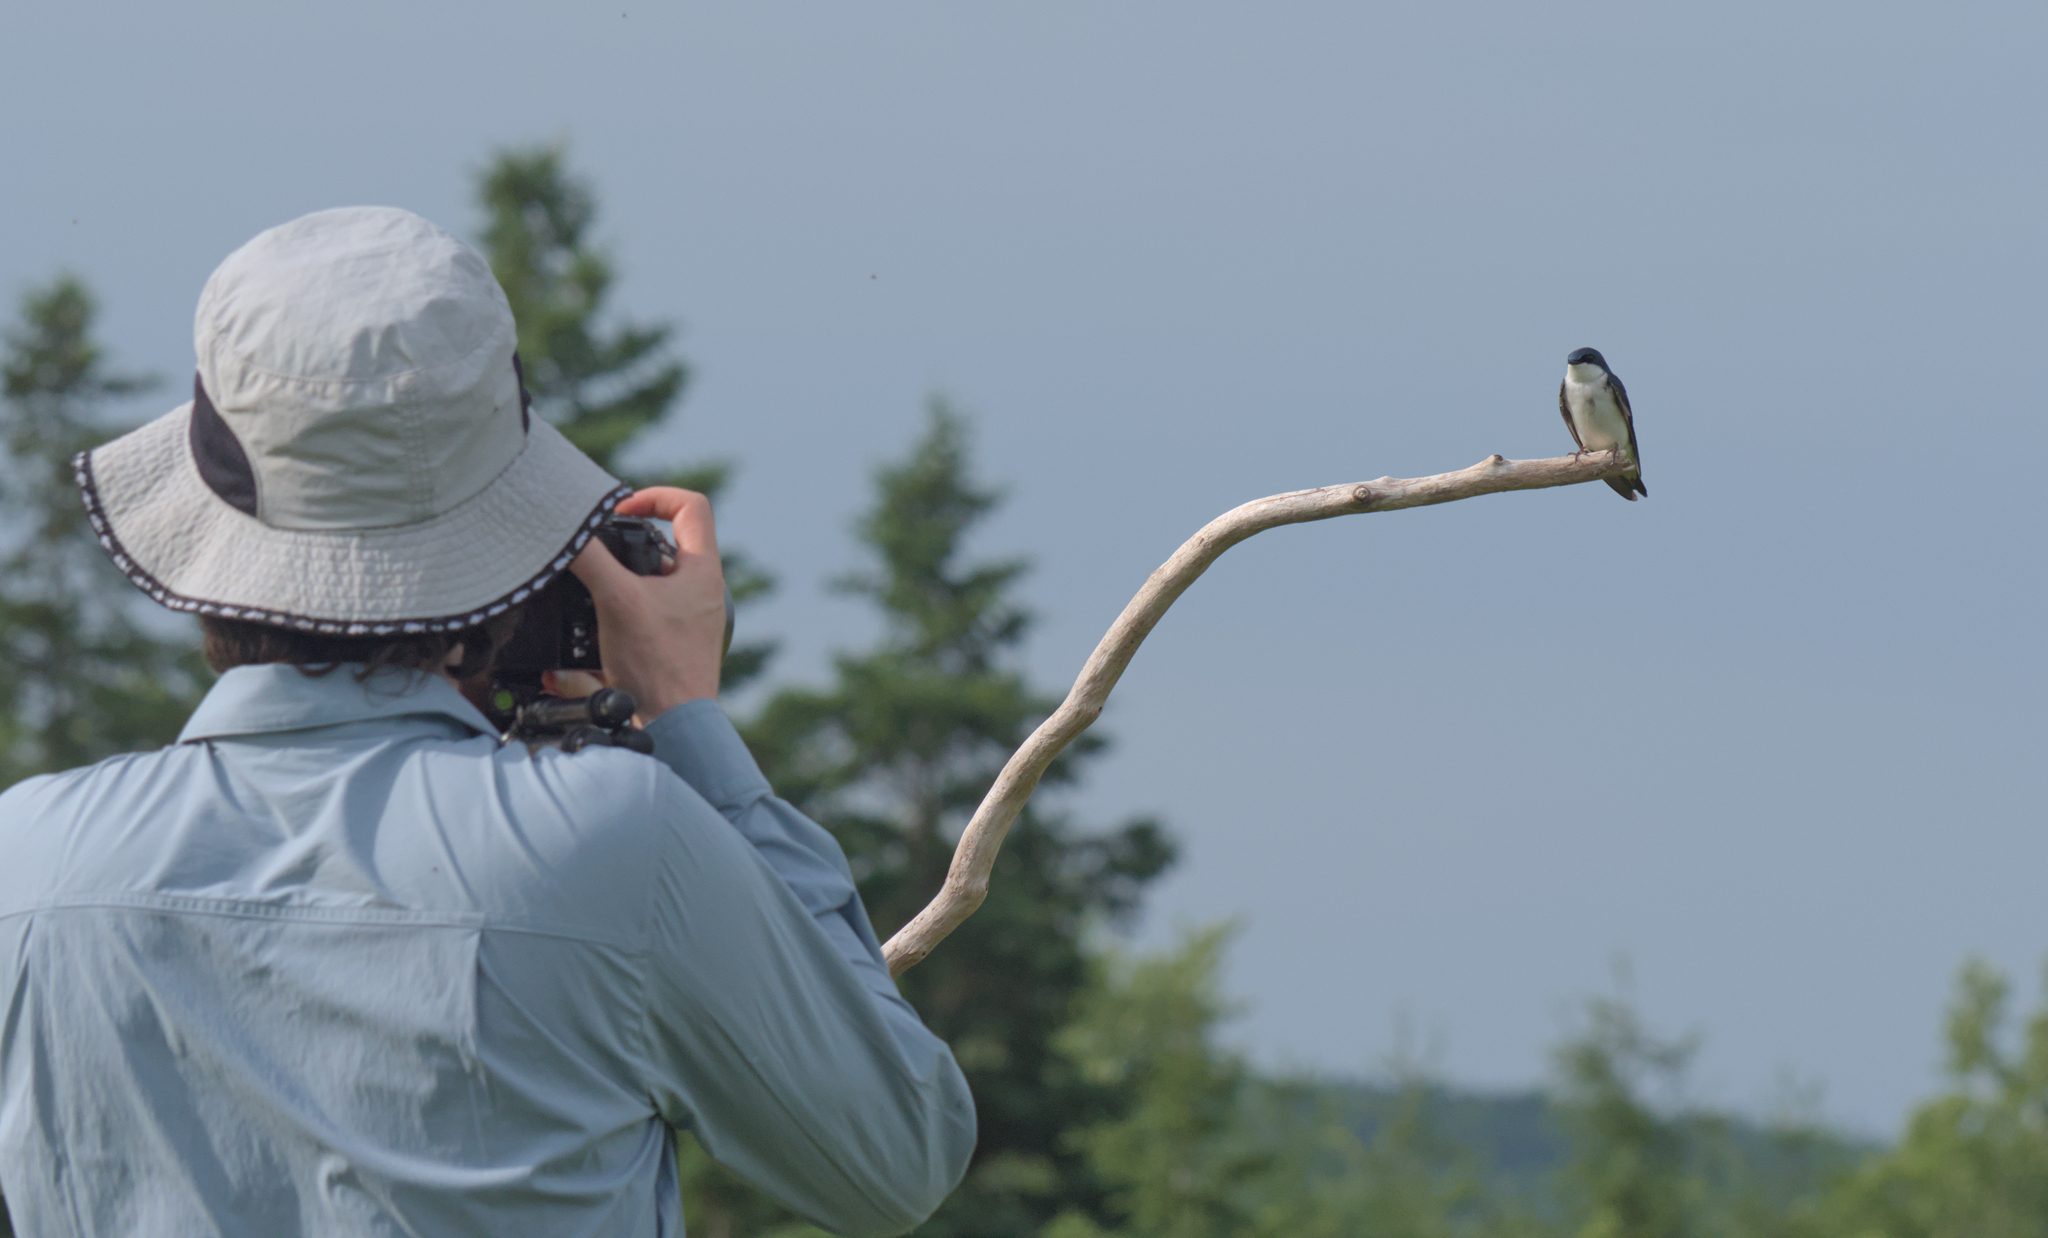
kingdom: Animalia
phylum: Chordata
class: Aves
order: Passeriformes
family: Hirundinidae
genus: Tachycineta
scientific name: Tachycineta bicolor
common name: Tree swallow
